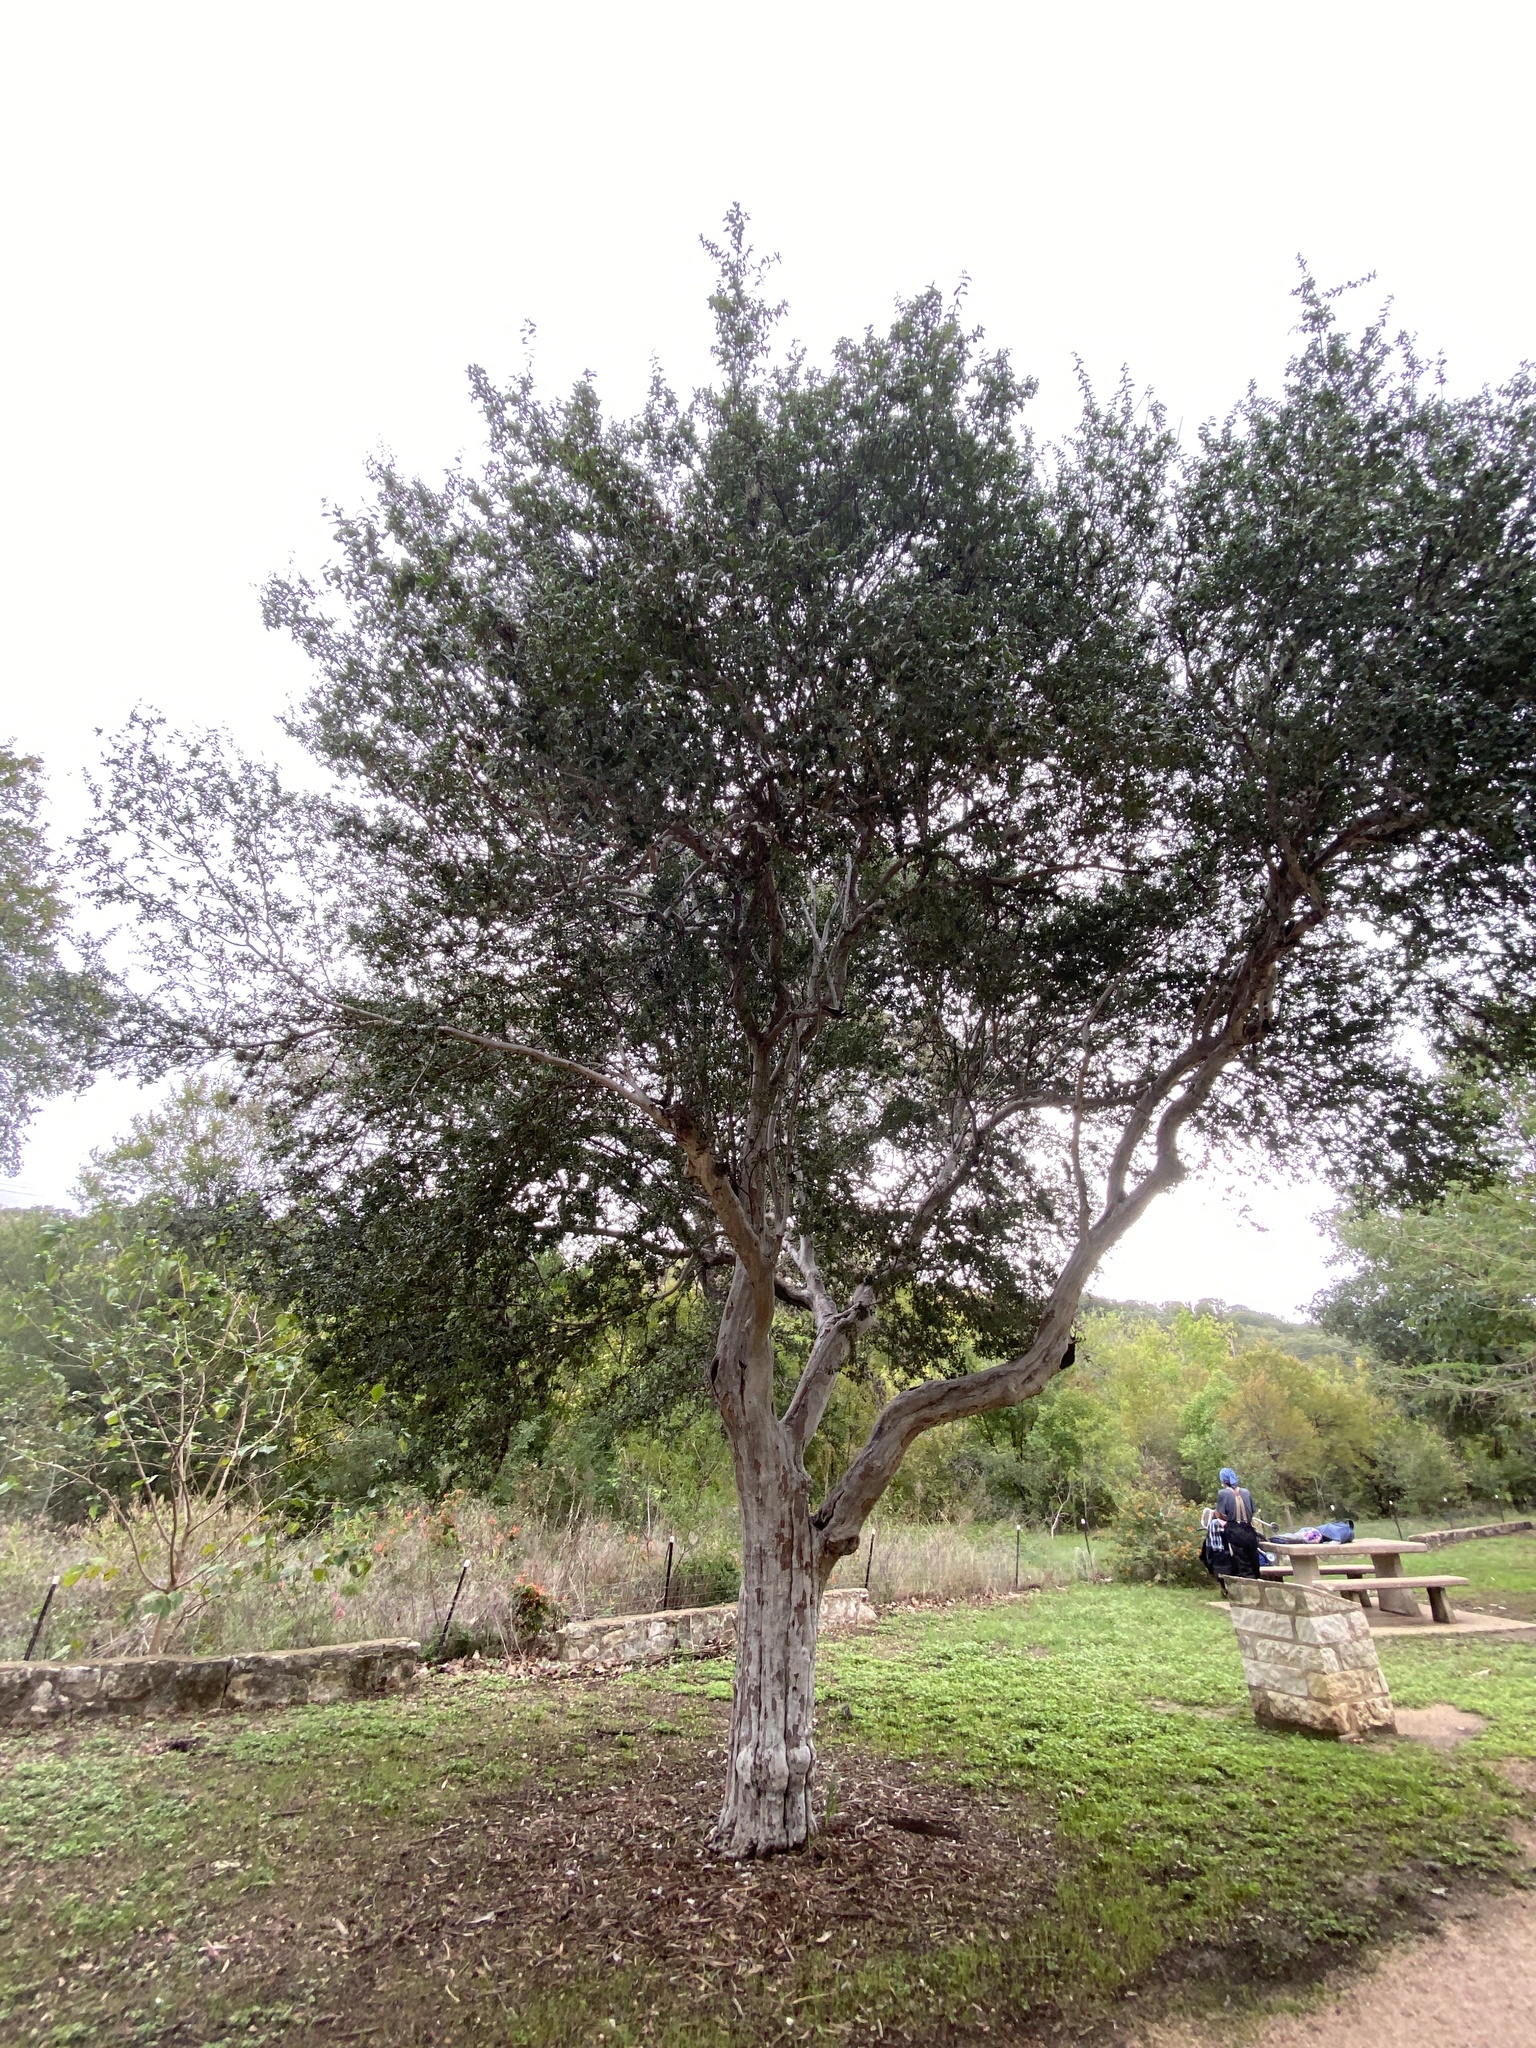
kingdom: Plantae
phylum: Tracheophyta
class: Magnoliopsida
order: Ericales
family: Ebenaceae
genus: Diospyros
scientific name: Diospyros texana
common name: Texas persimmon
